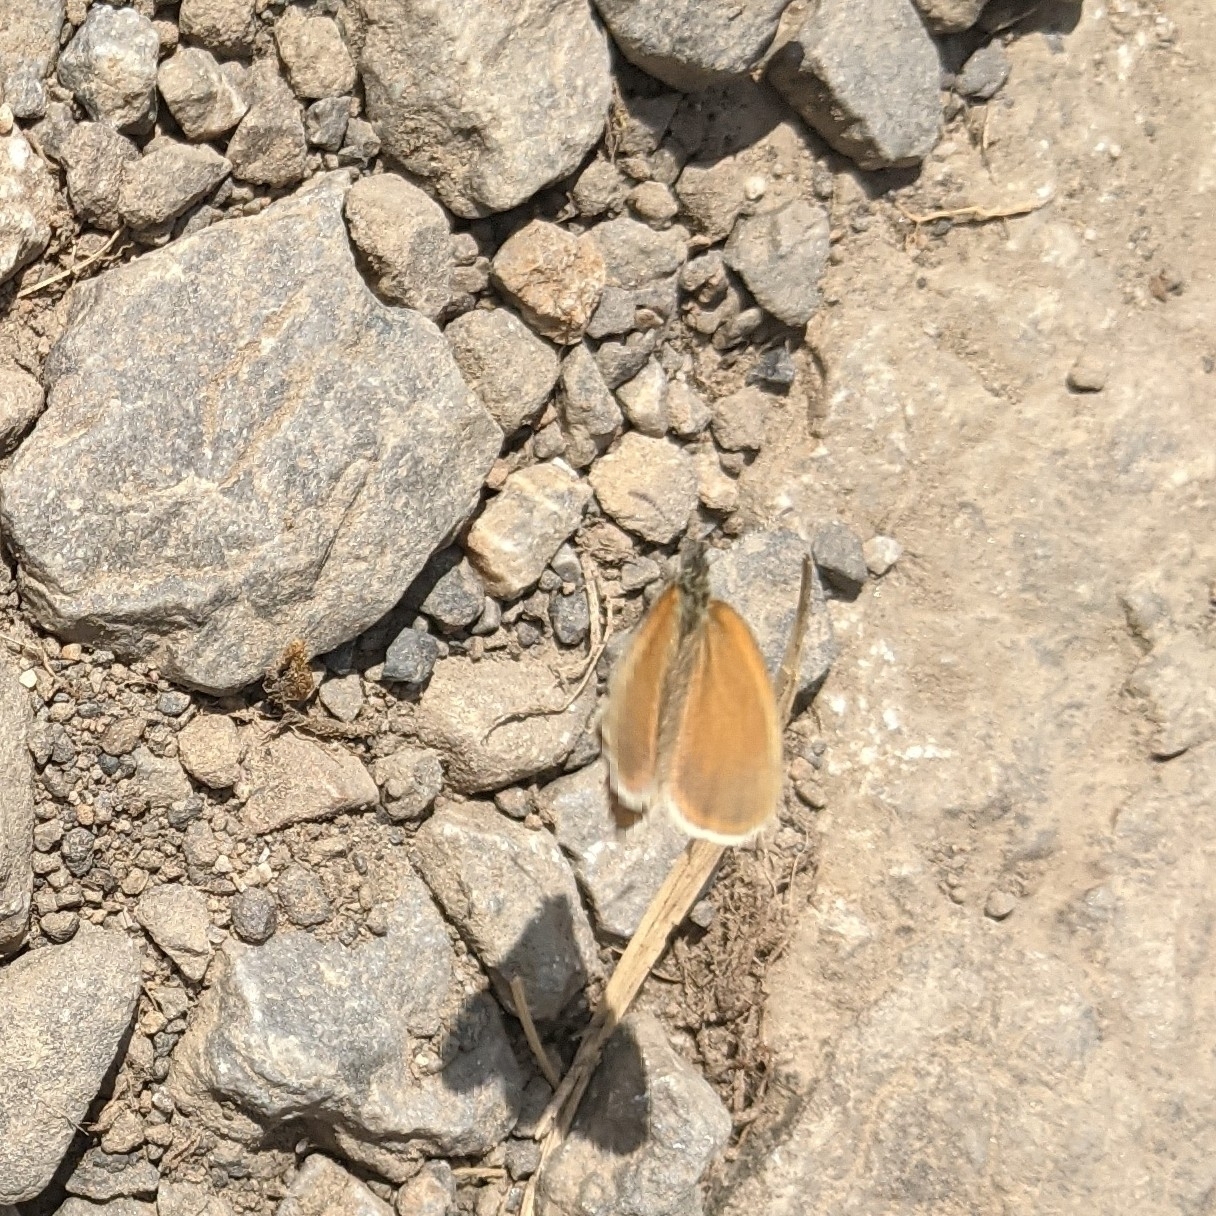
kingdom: Animalia
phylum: Arthropoda
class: Insecta
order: Lepidoptera
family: Nymphalidae
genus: Coenonympha
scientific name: Coenonympha
